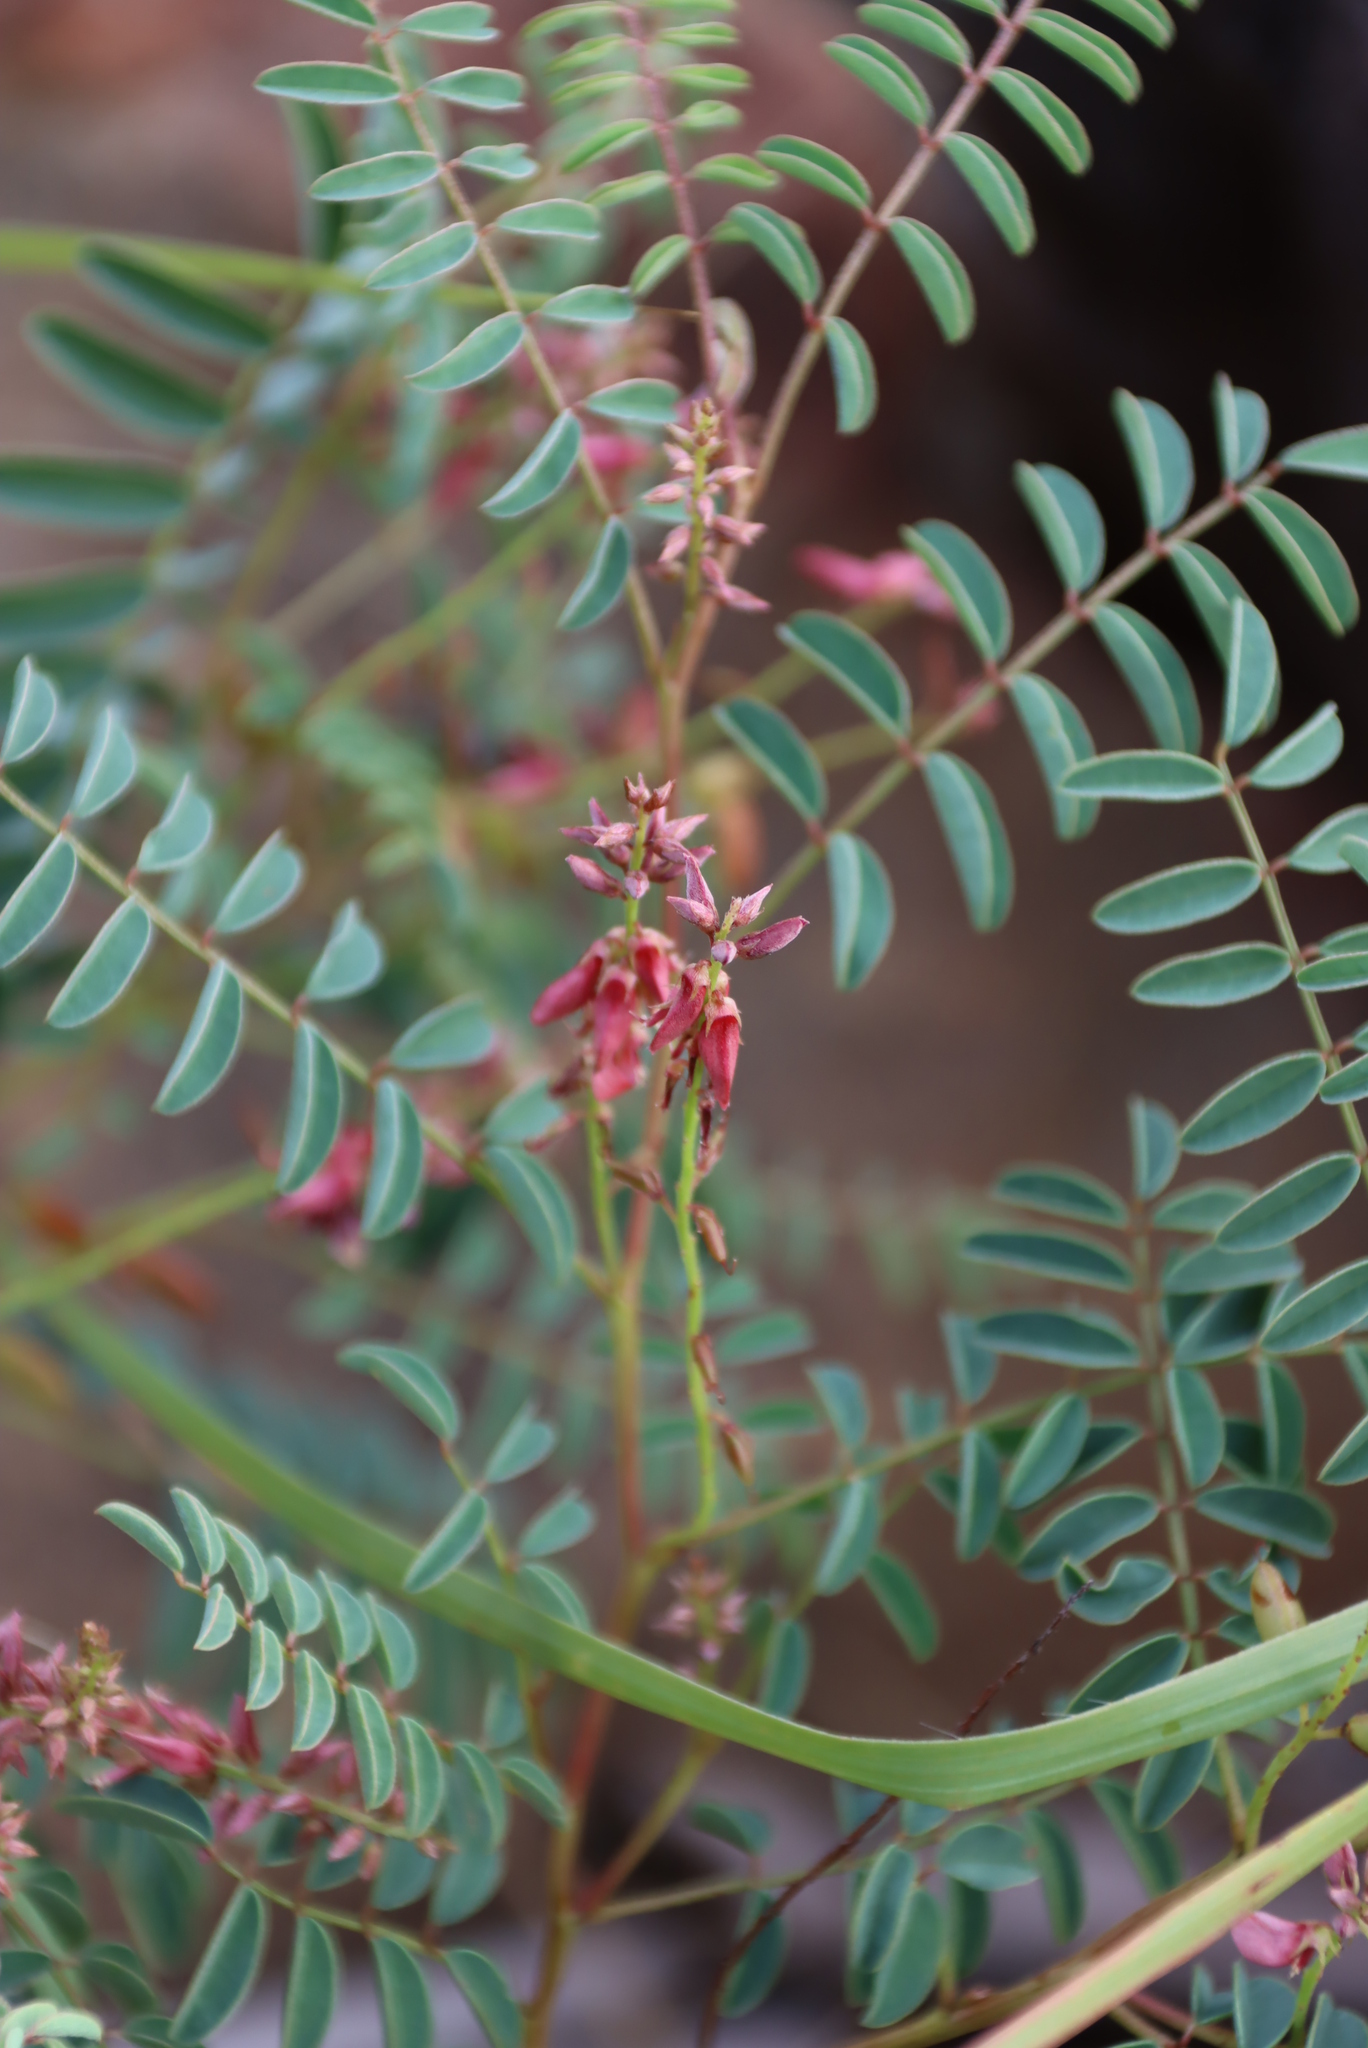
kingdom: Plantae
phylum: Tracheophyta
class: Magnoliopsida
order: Fabales
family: Fabaceae
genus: Indigofera
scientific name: Indigofera williamsonii
